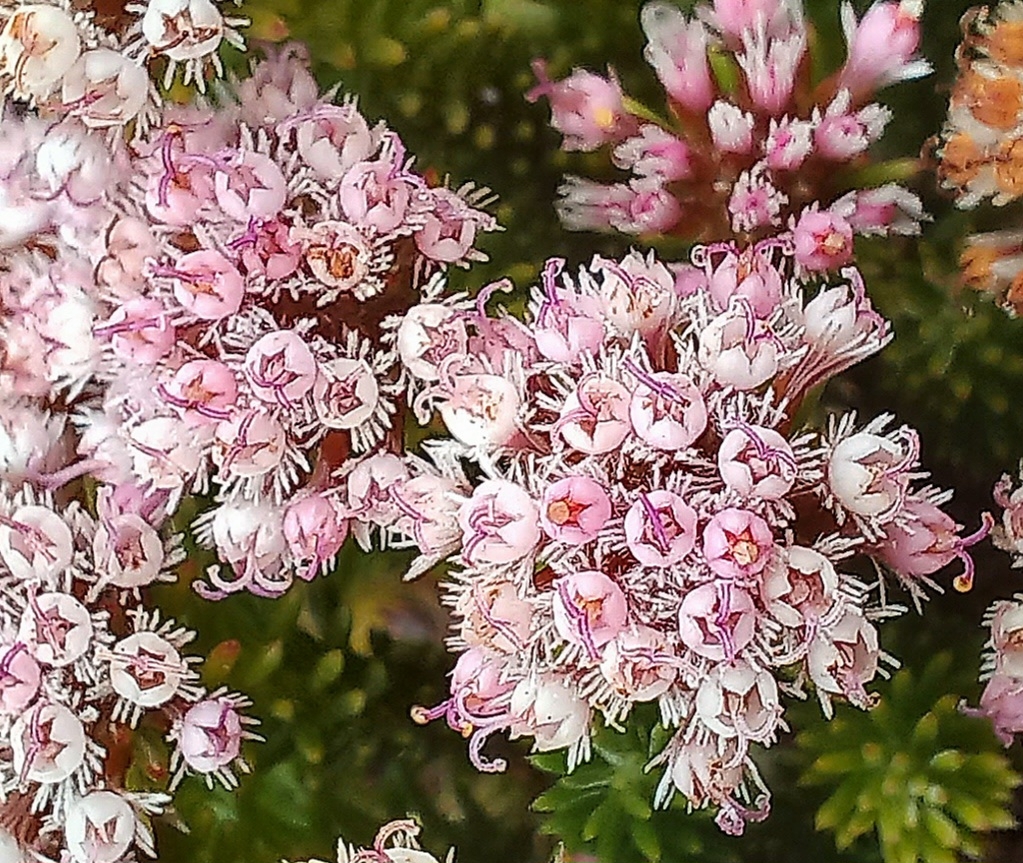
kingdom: Plantae
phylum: Tracheophyta
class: Magnoliopsida
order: Asterales
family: Asteraceae
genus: Stoebe
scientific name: Stoebe rosea
